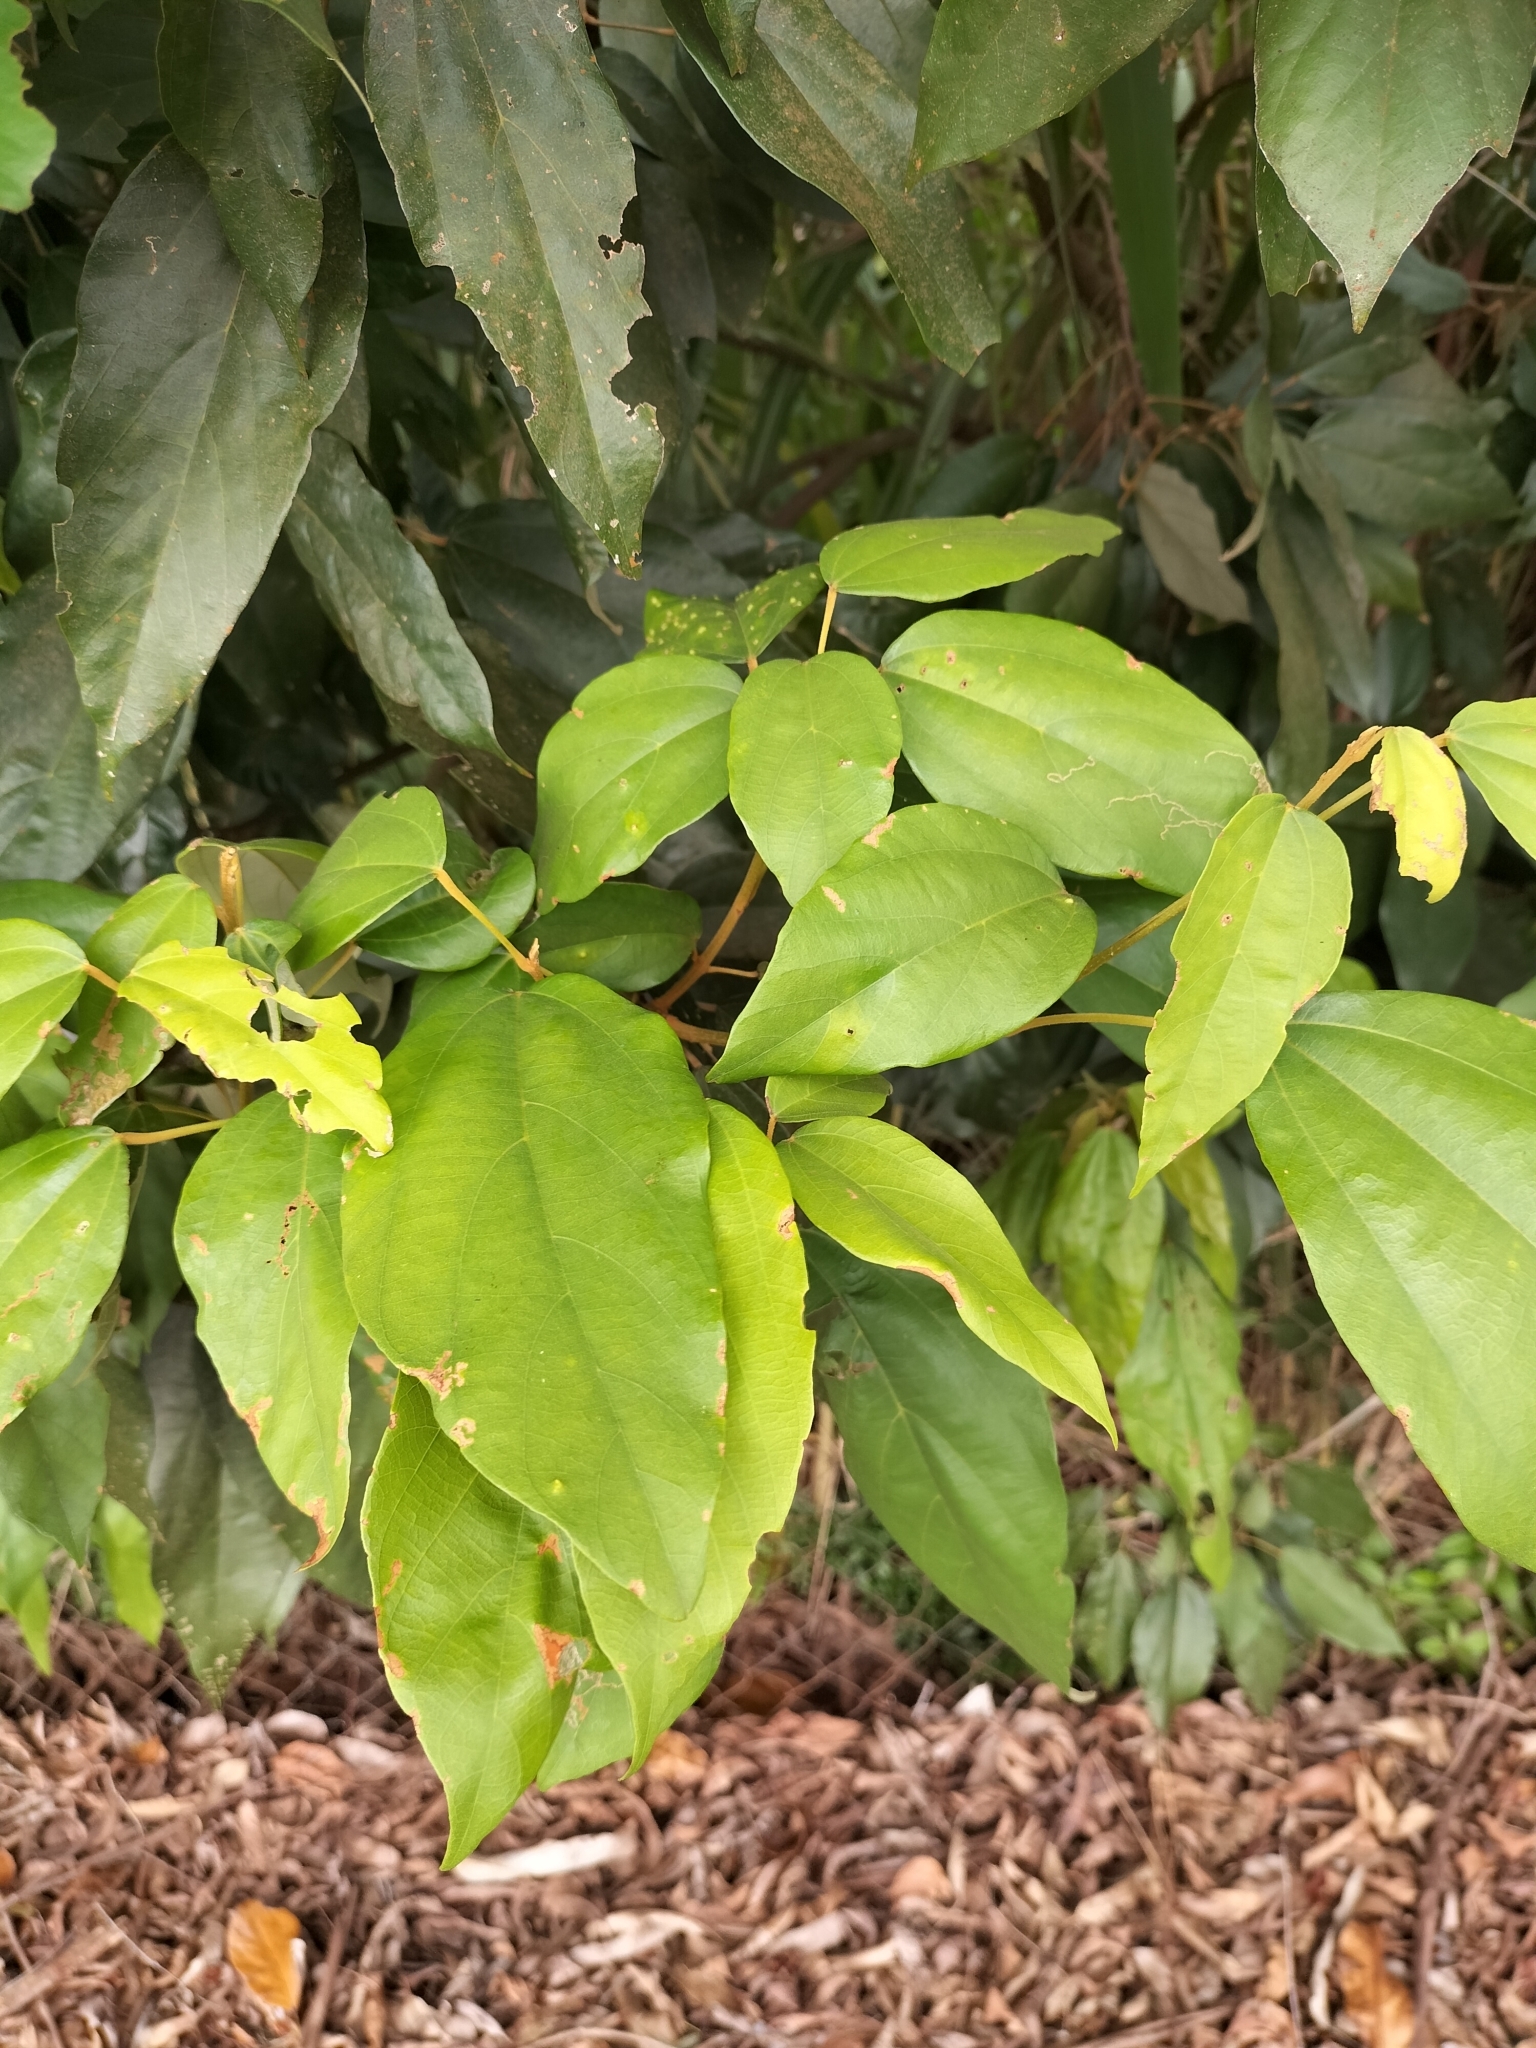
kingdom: Plantae
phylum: Tracheophyta
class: Magnoliopsida
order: Malpighiales
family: Euphorbiaceae
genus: Mallotus
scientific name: Mallotus philippensis
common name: Kamala tree
